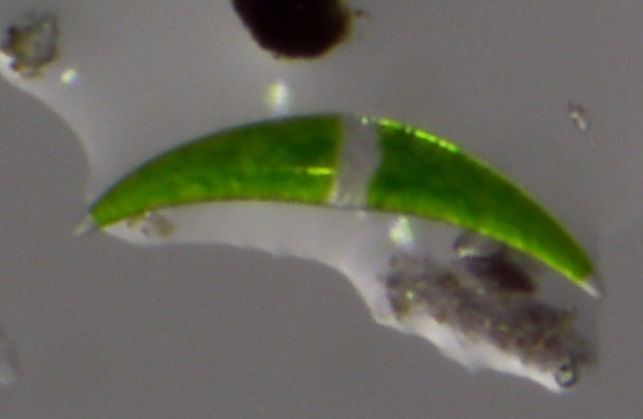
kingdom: Plantae
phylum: Charophyta
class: Zygnematophyceae
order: Zygnematales
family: Closteriaceae
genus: Closterium
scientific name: Closterium moniliferum
